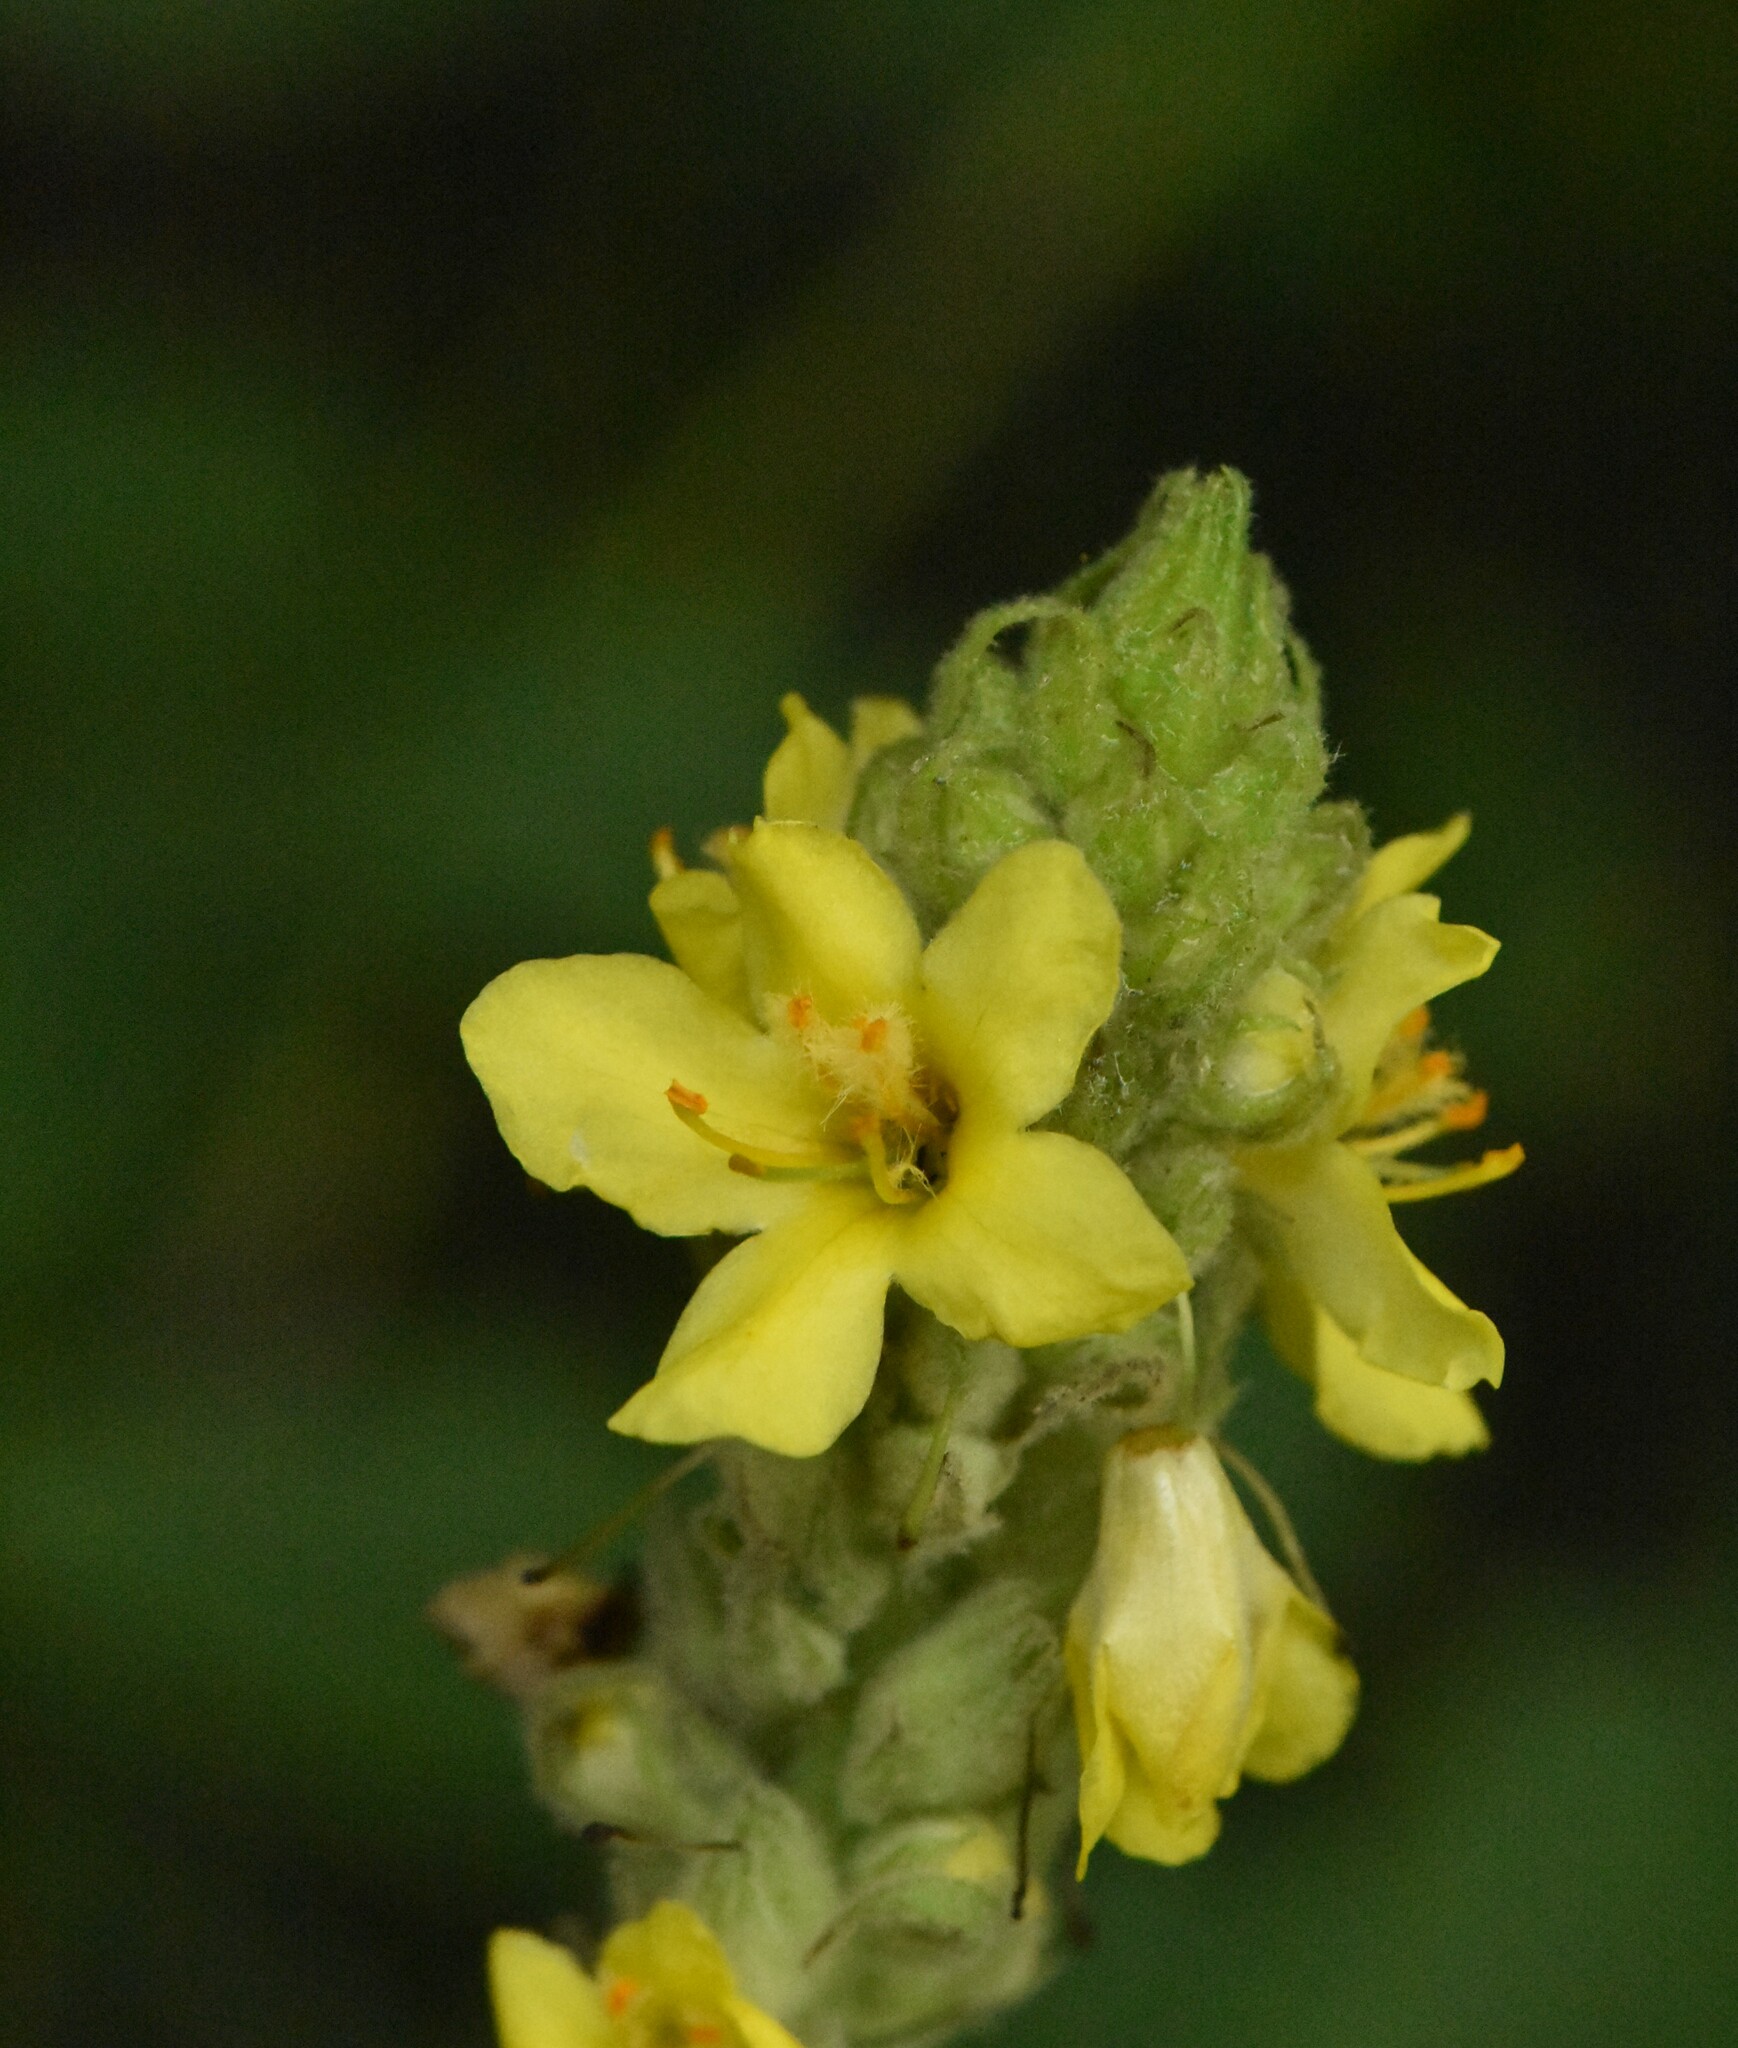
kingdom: Plantae
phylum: Tracheophyta
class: Magnoliopsida
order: Lamiales
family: Scrophulariaceae
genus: Verbascum
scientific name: Verbascum thapsus
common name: Common mullein
